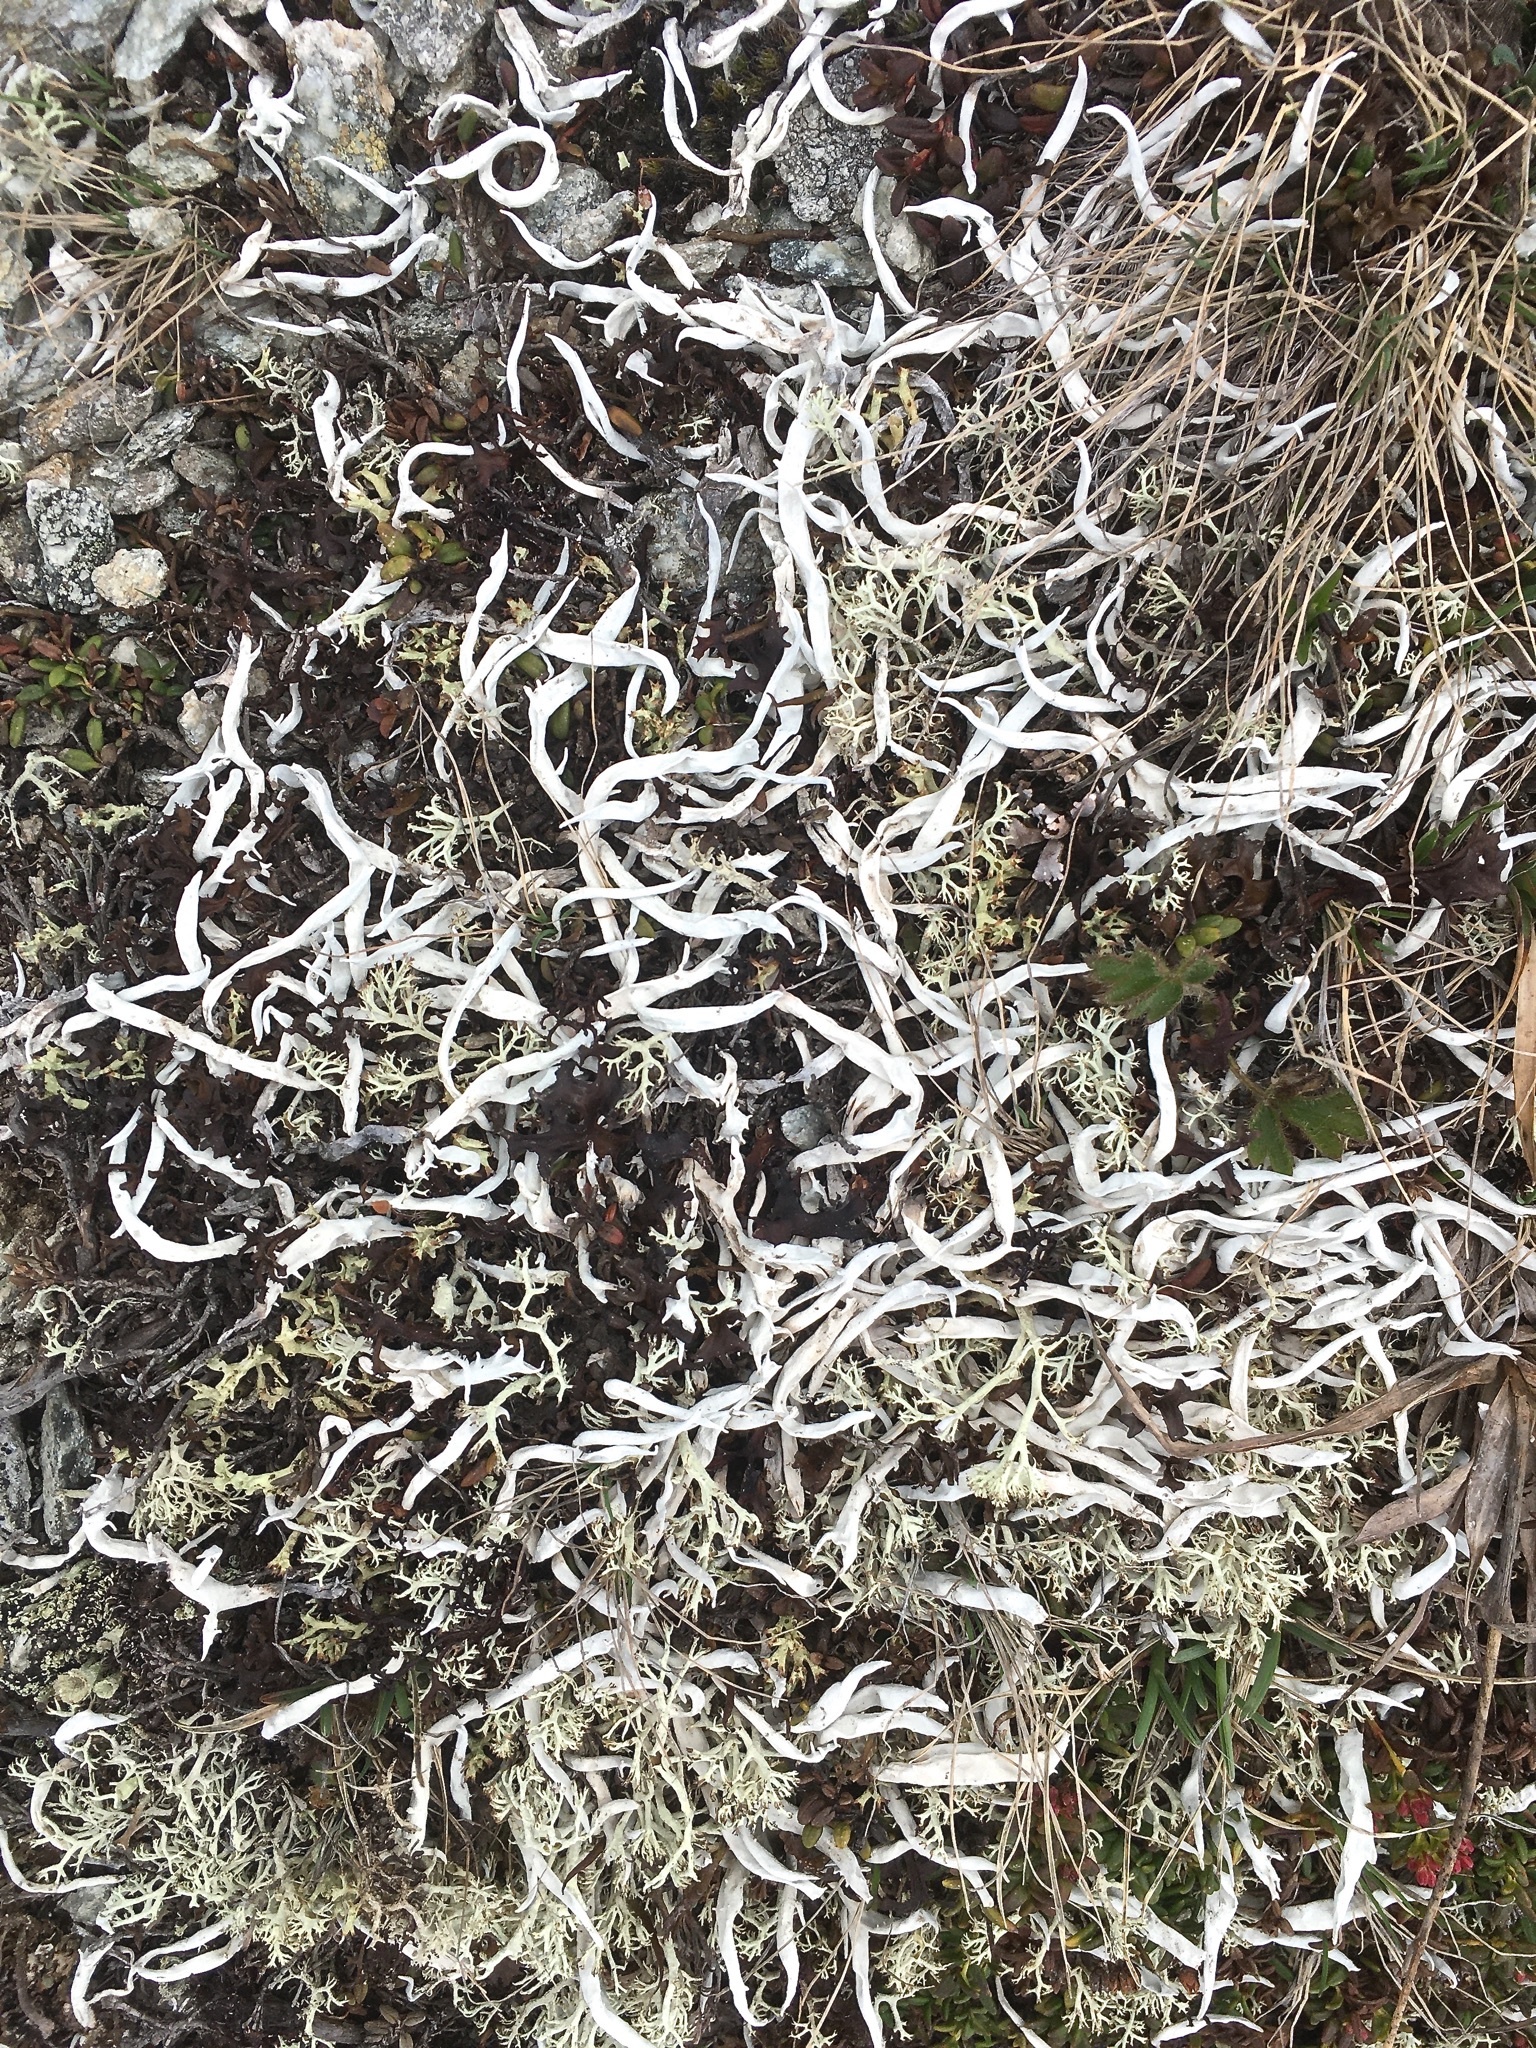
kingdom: Fungi
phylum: Ascomycota
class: Lecanoromycetes
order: Pertusariales
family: Icmadophilaceae
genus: Thamnolia
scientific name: Thamnolia vermicularis
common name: Whiteworm lichen
